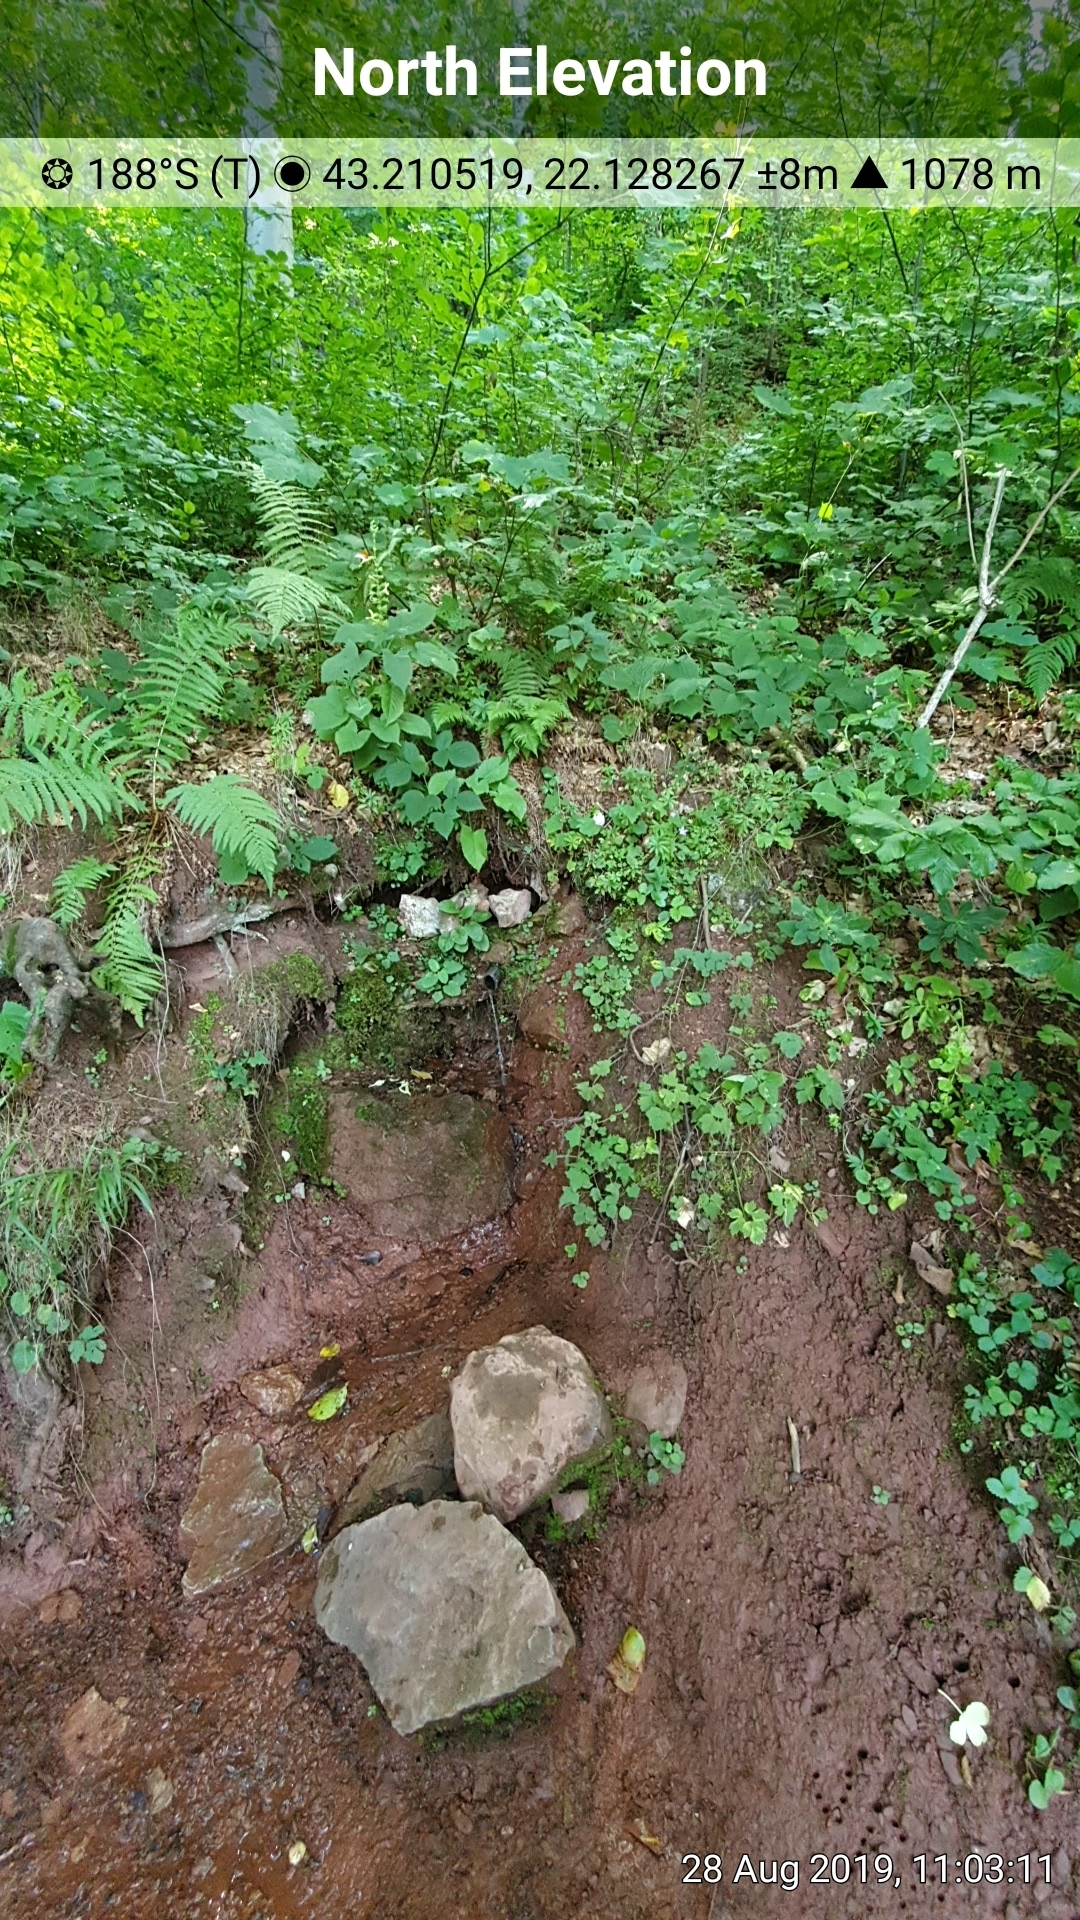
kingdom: Plantae
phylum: Tracheophyta
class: Magnoliopsida
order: Lamiales
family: Lamiaceae
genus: Salvia
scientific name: Salvia glutinosa
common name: Sticky clary
